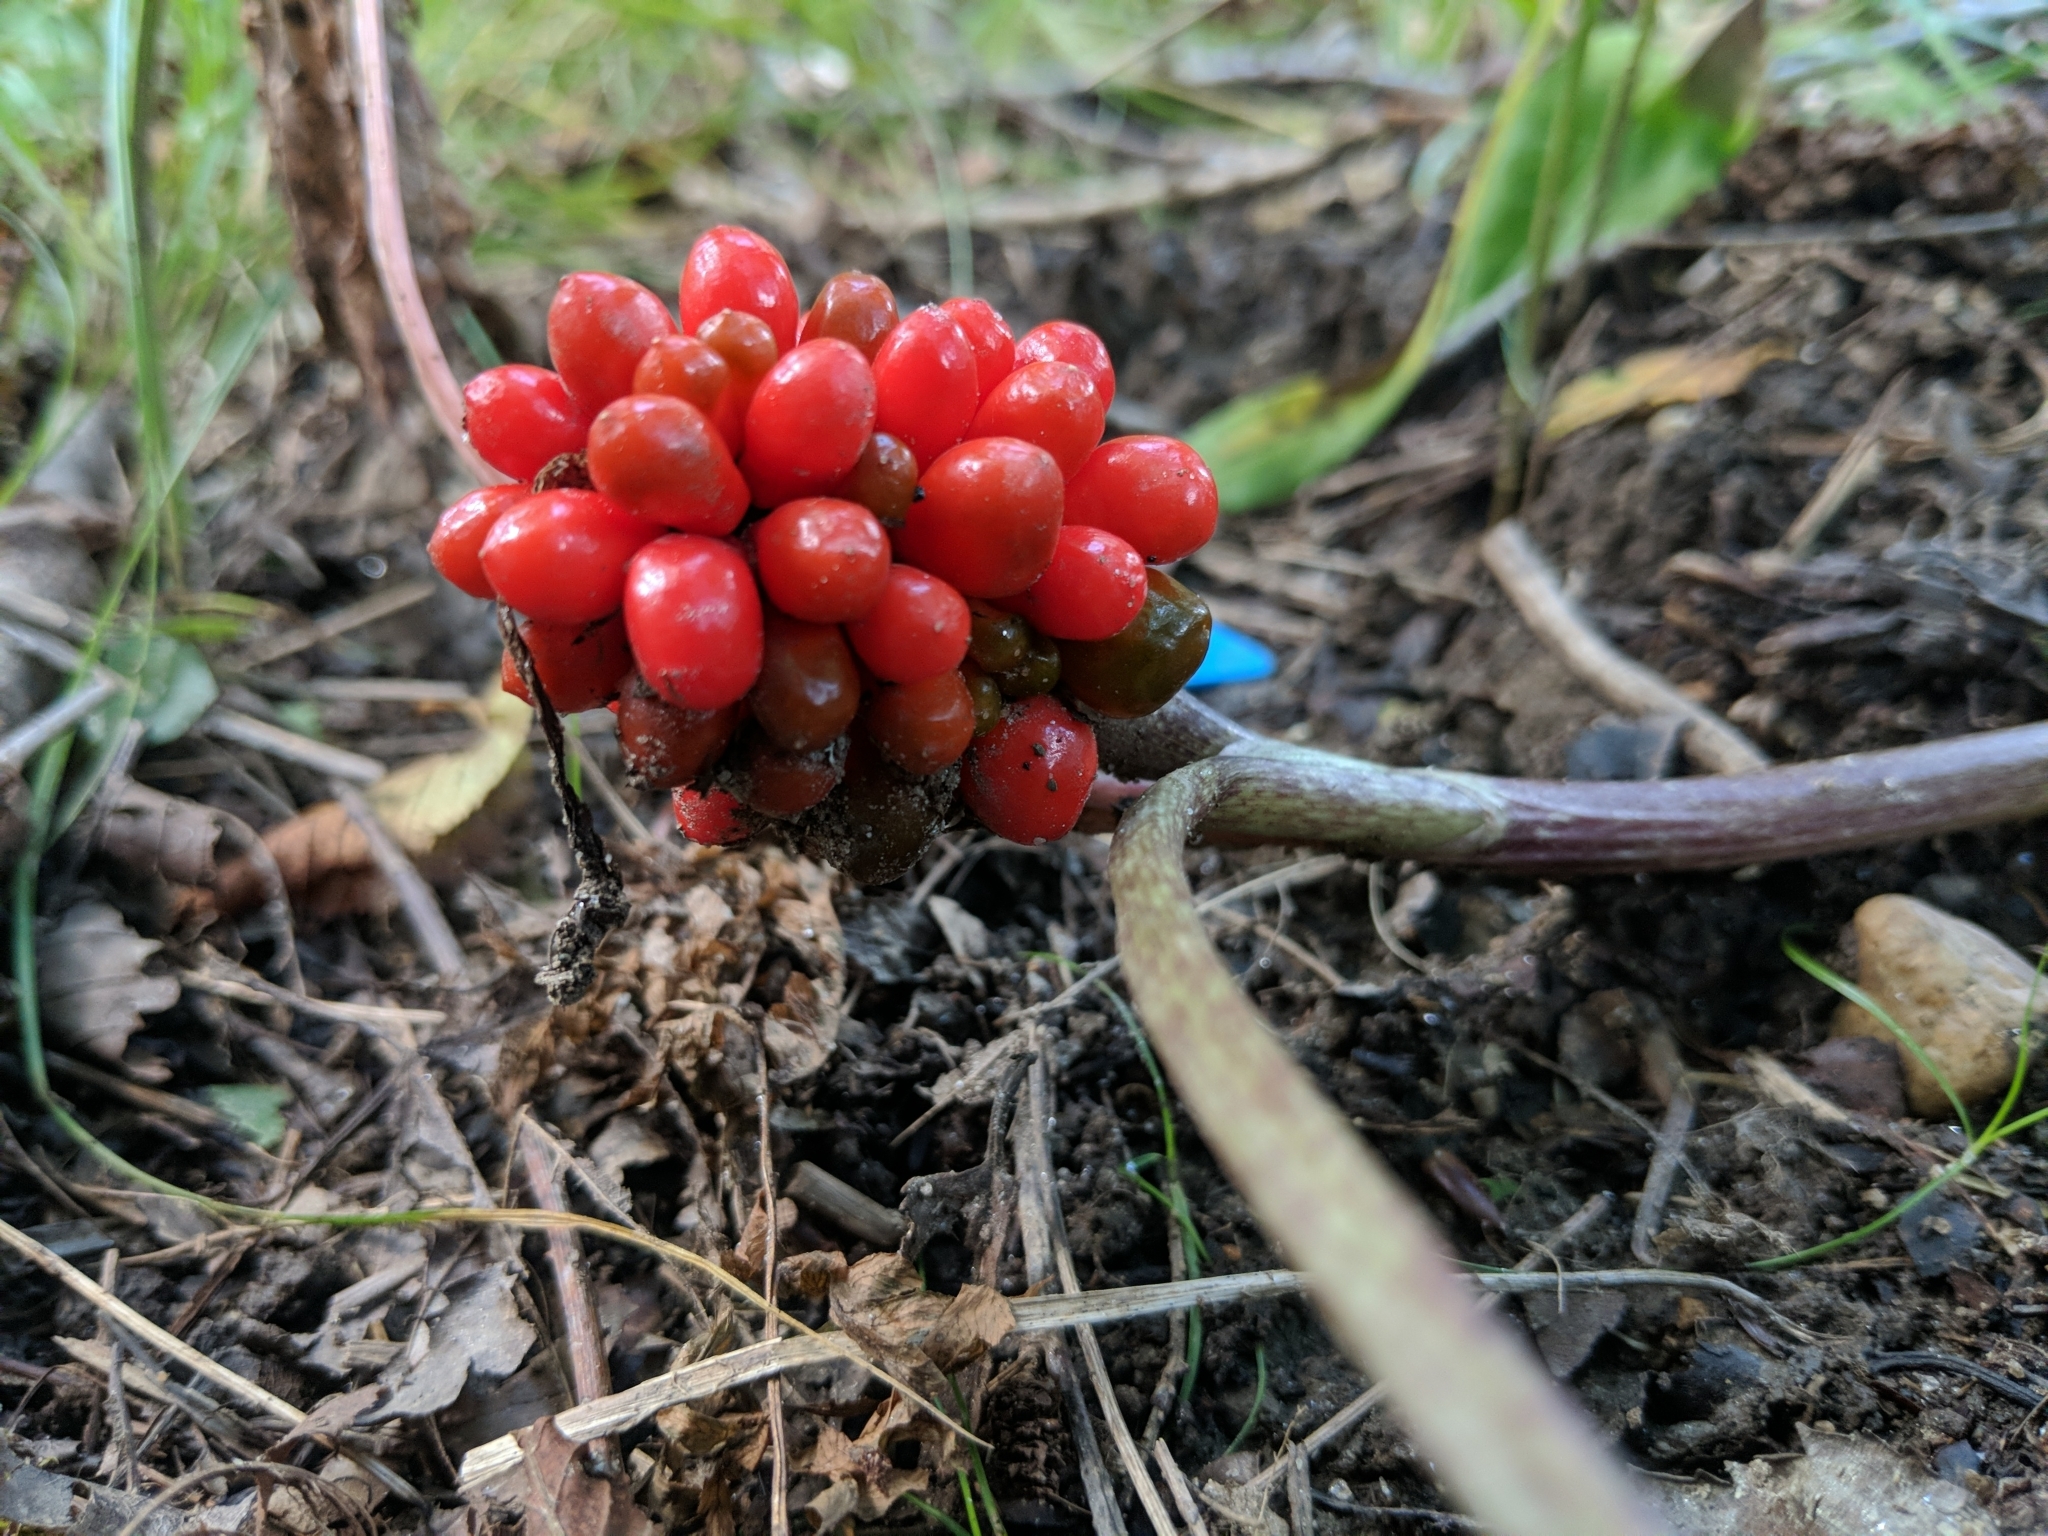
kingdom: Plantae
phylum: Tracheophyta
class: Liliopsida
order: Alismatales
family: Araceae
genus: Arisaema
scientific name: Arisaema triphyllum
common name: Jack-in-the-pulpit
